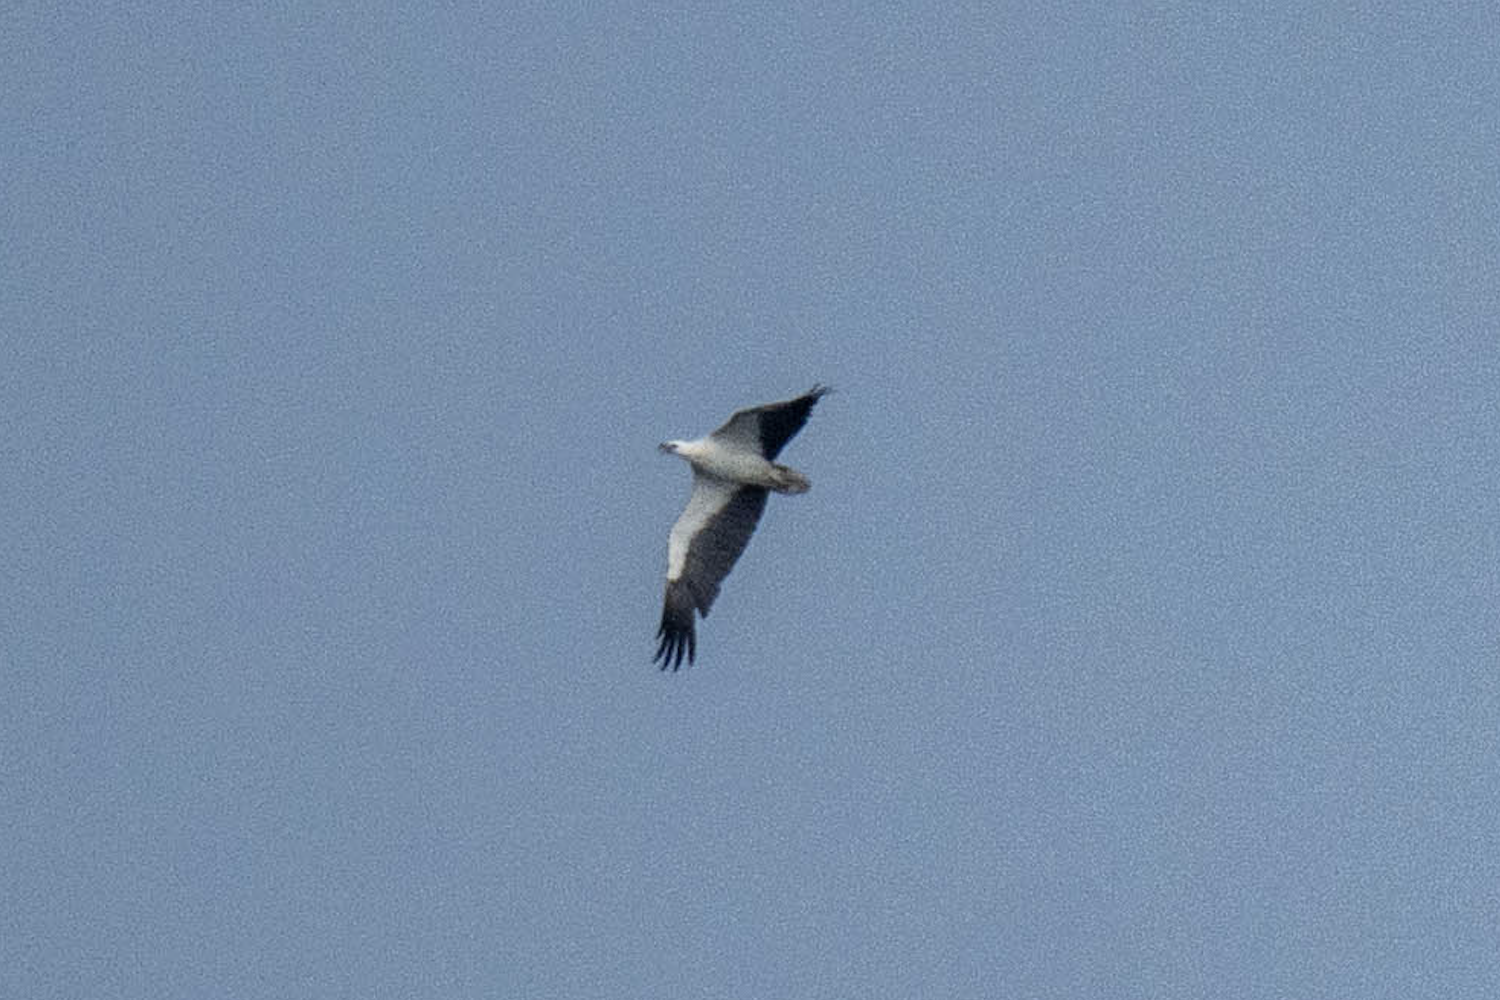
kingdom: Animalia
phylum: Chordata
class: Aves
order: Accipitriformes
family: Accipitridae
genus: Haliaeetus
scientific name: Haliaeetus leucogaster
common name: White-bellied sea eagle
